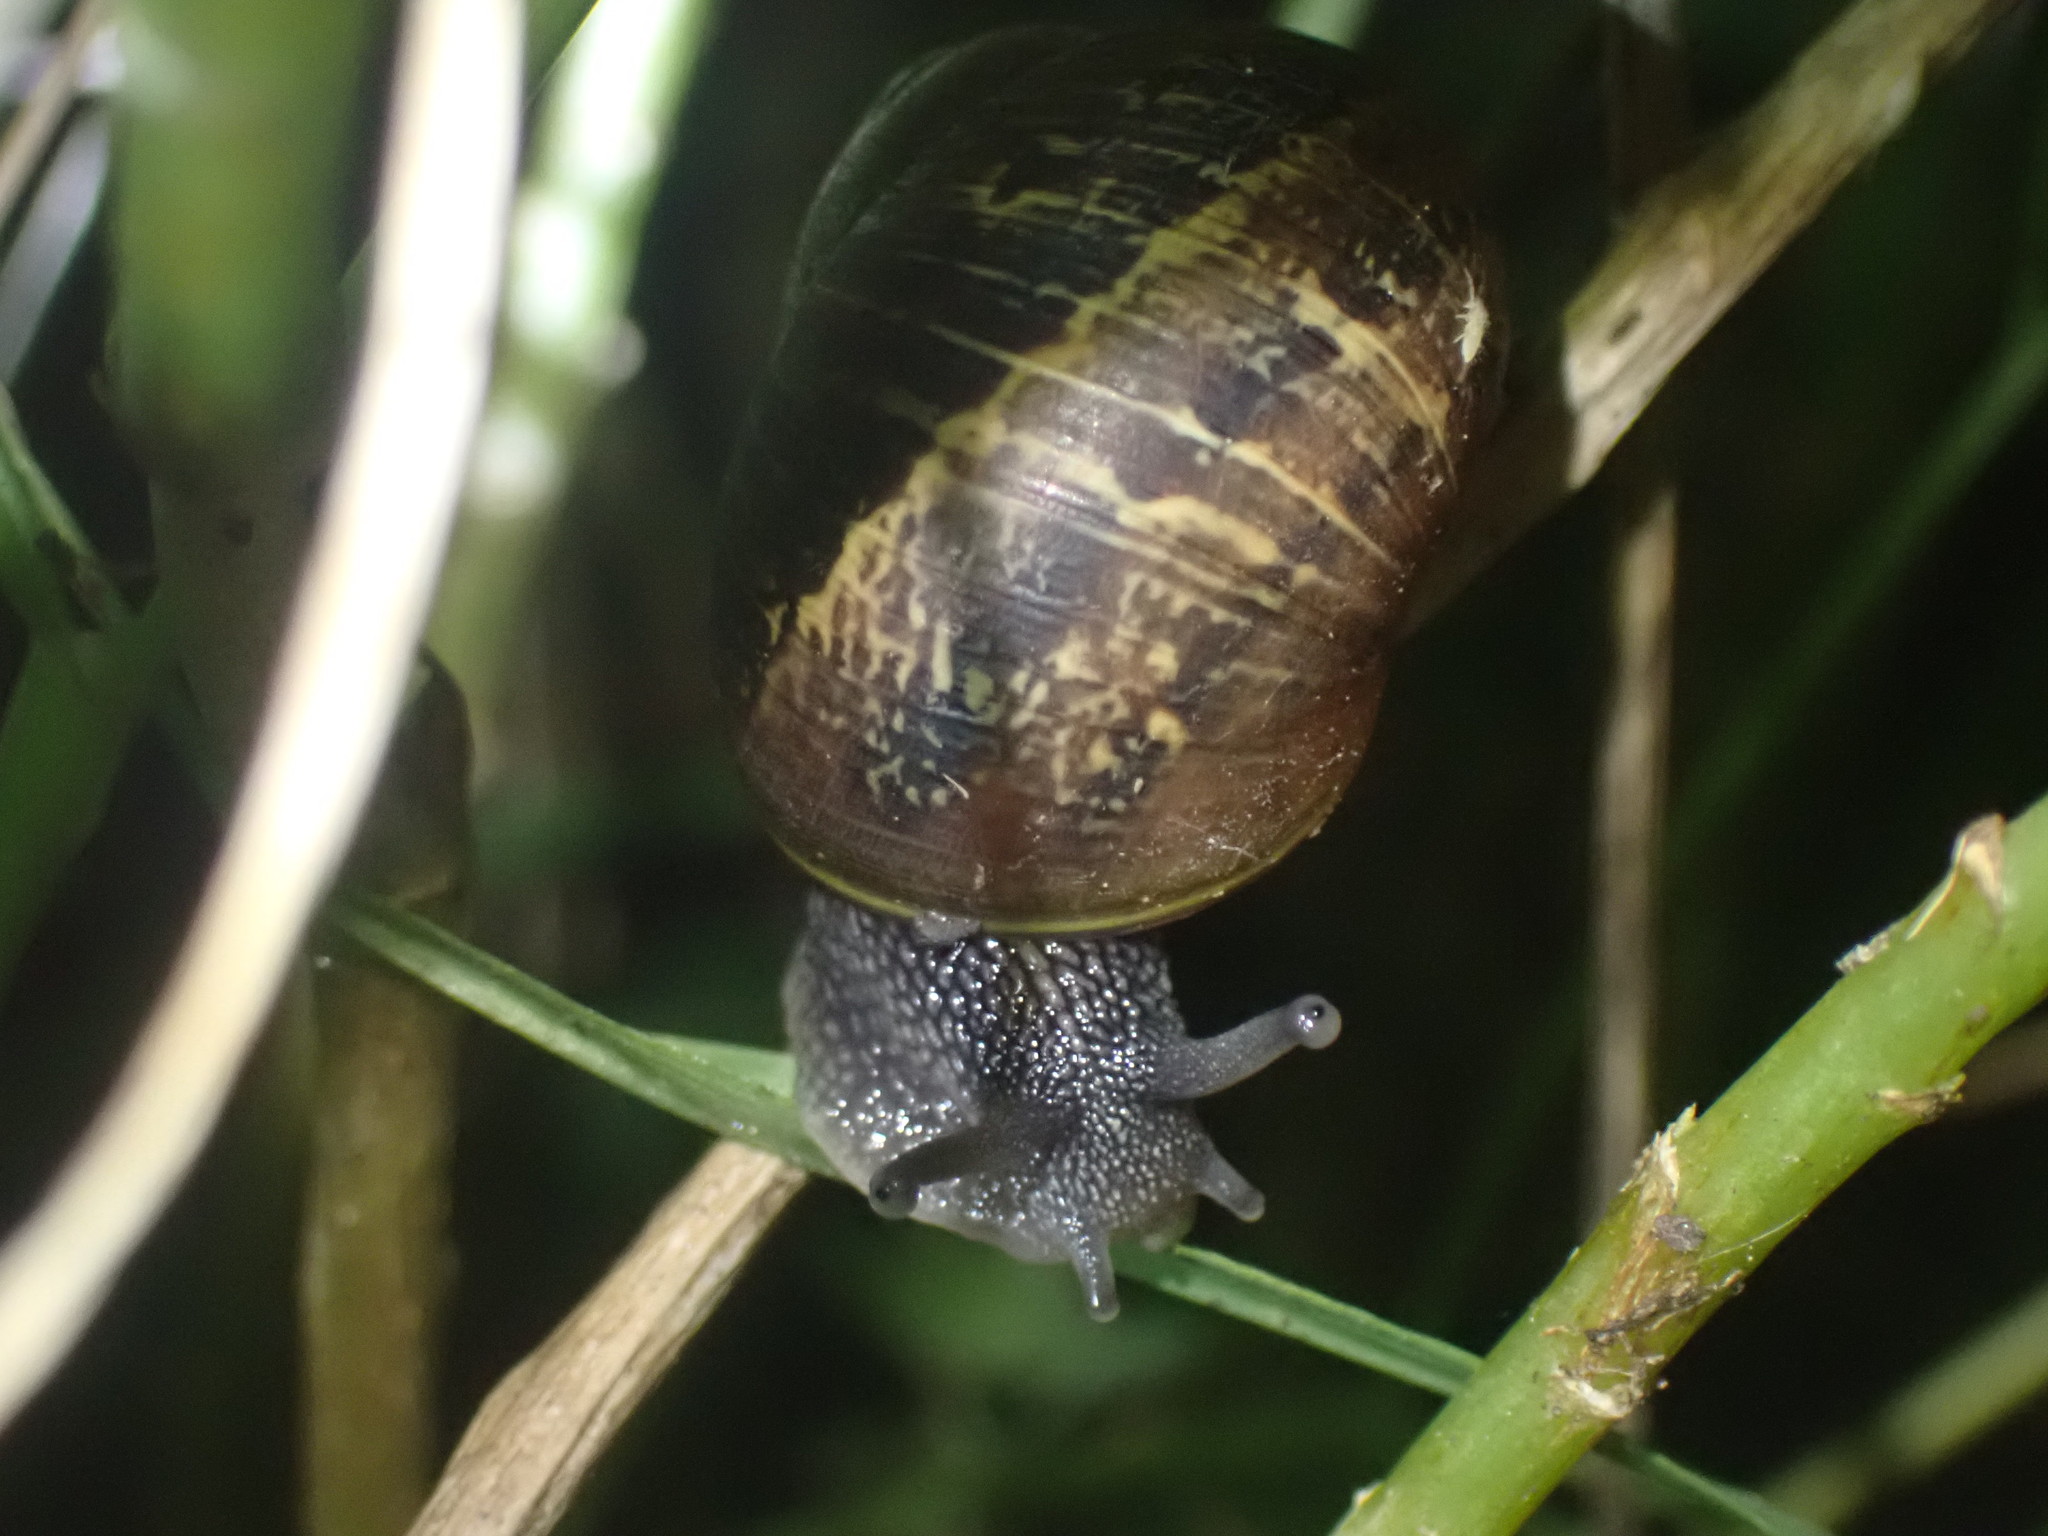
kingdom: Animalia
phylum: Mollusca
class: Gastropoda
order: Stylommatophora
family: Helicidae
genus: Cornu
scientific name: Cornu aspersum
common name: Brown garden snail
